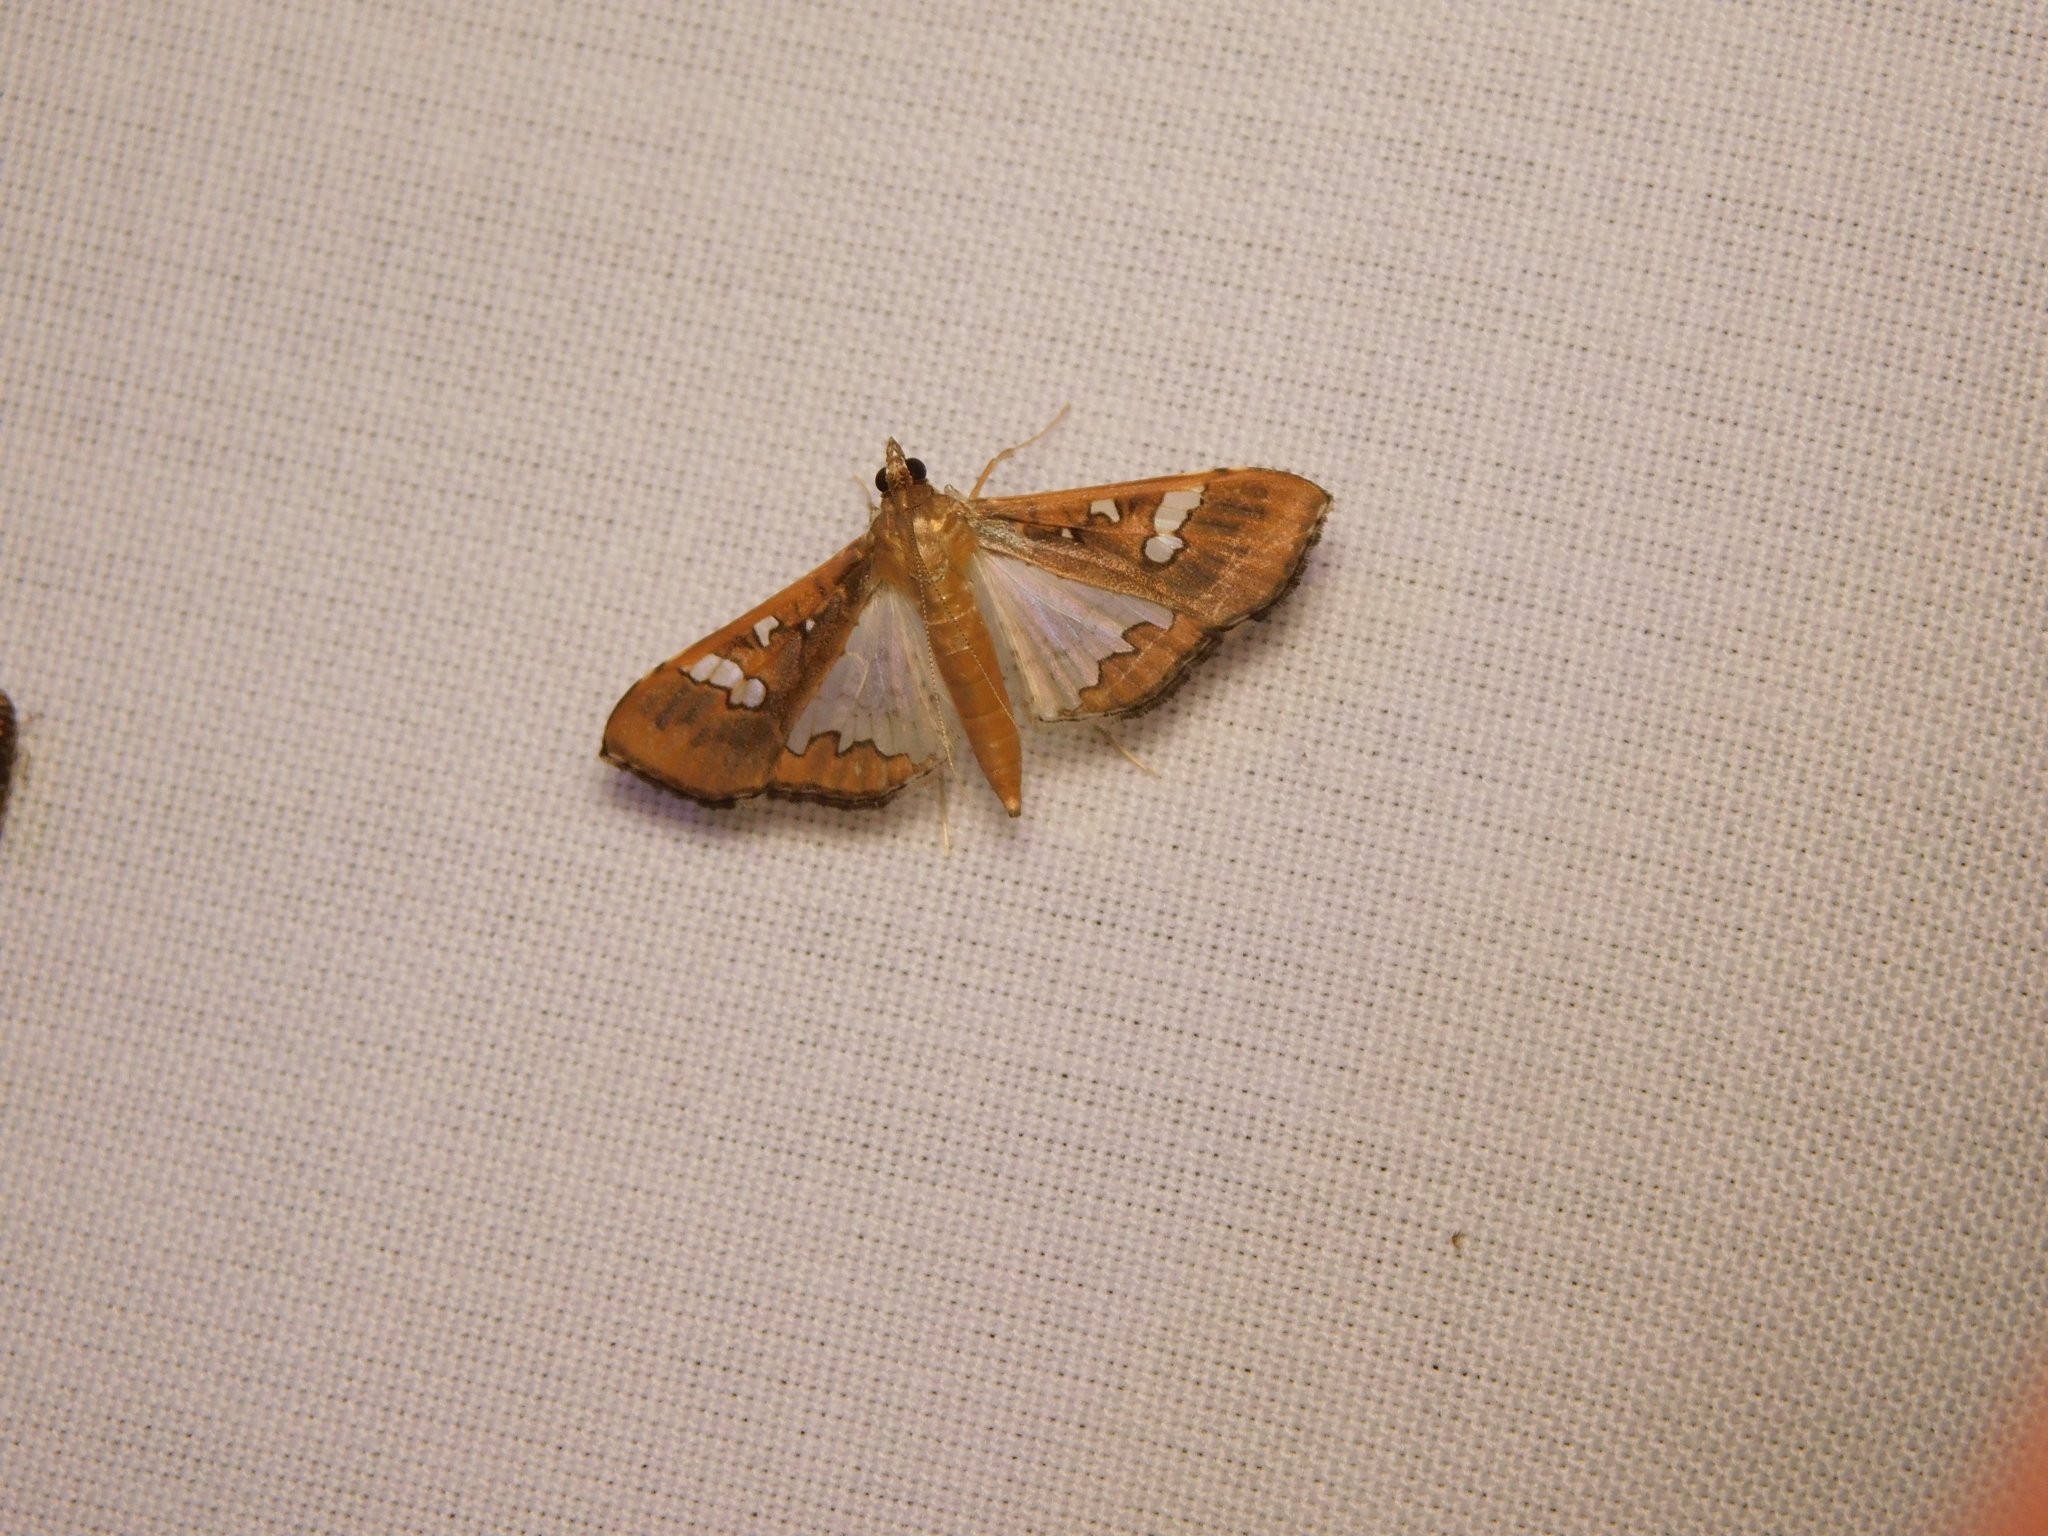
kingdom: Animalia
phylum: Arthropoda
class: Insecta
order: Lepidoptera
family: Crambidae
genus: Maruca
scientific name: Maruca vitrata
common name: Maruca pod borer
